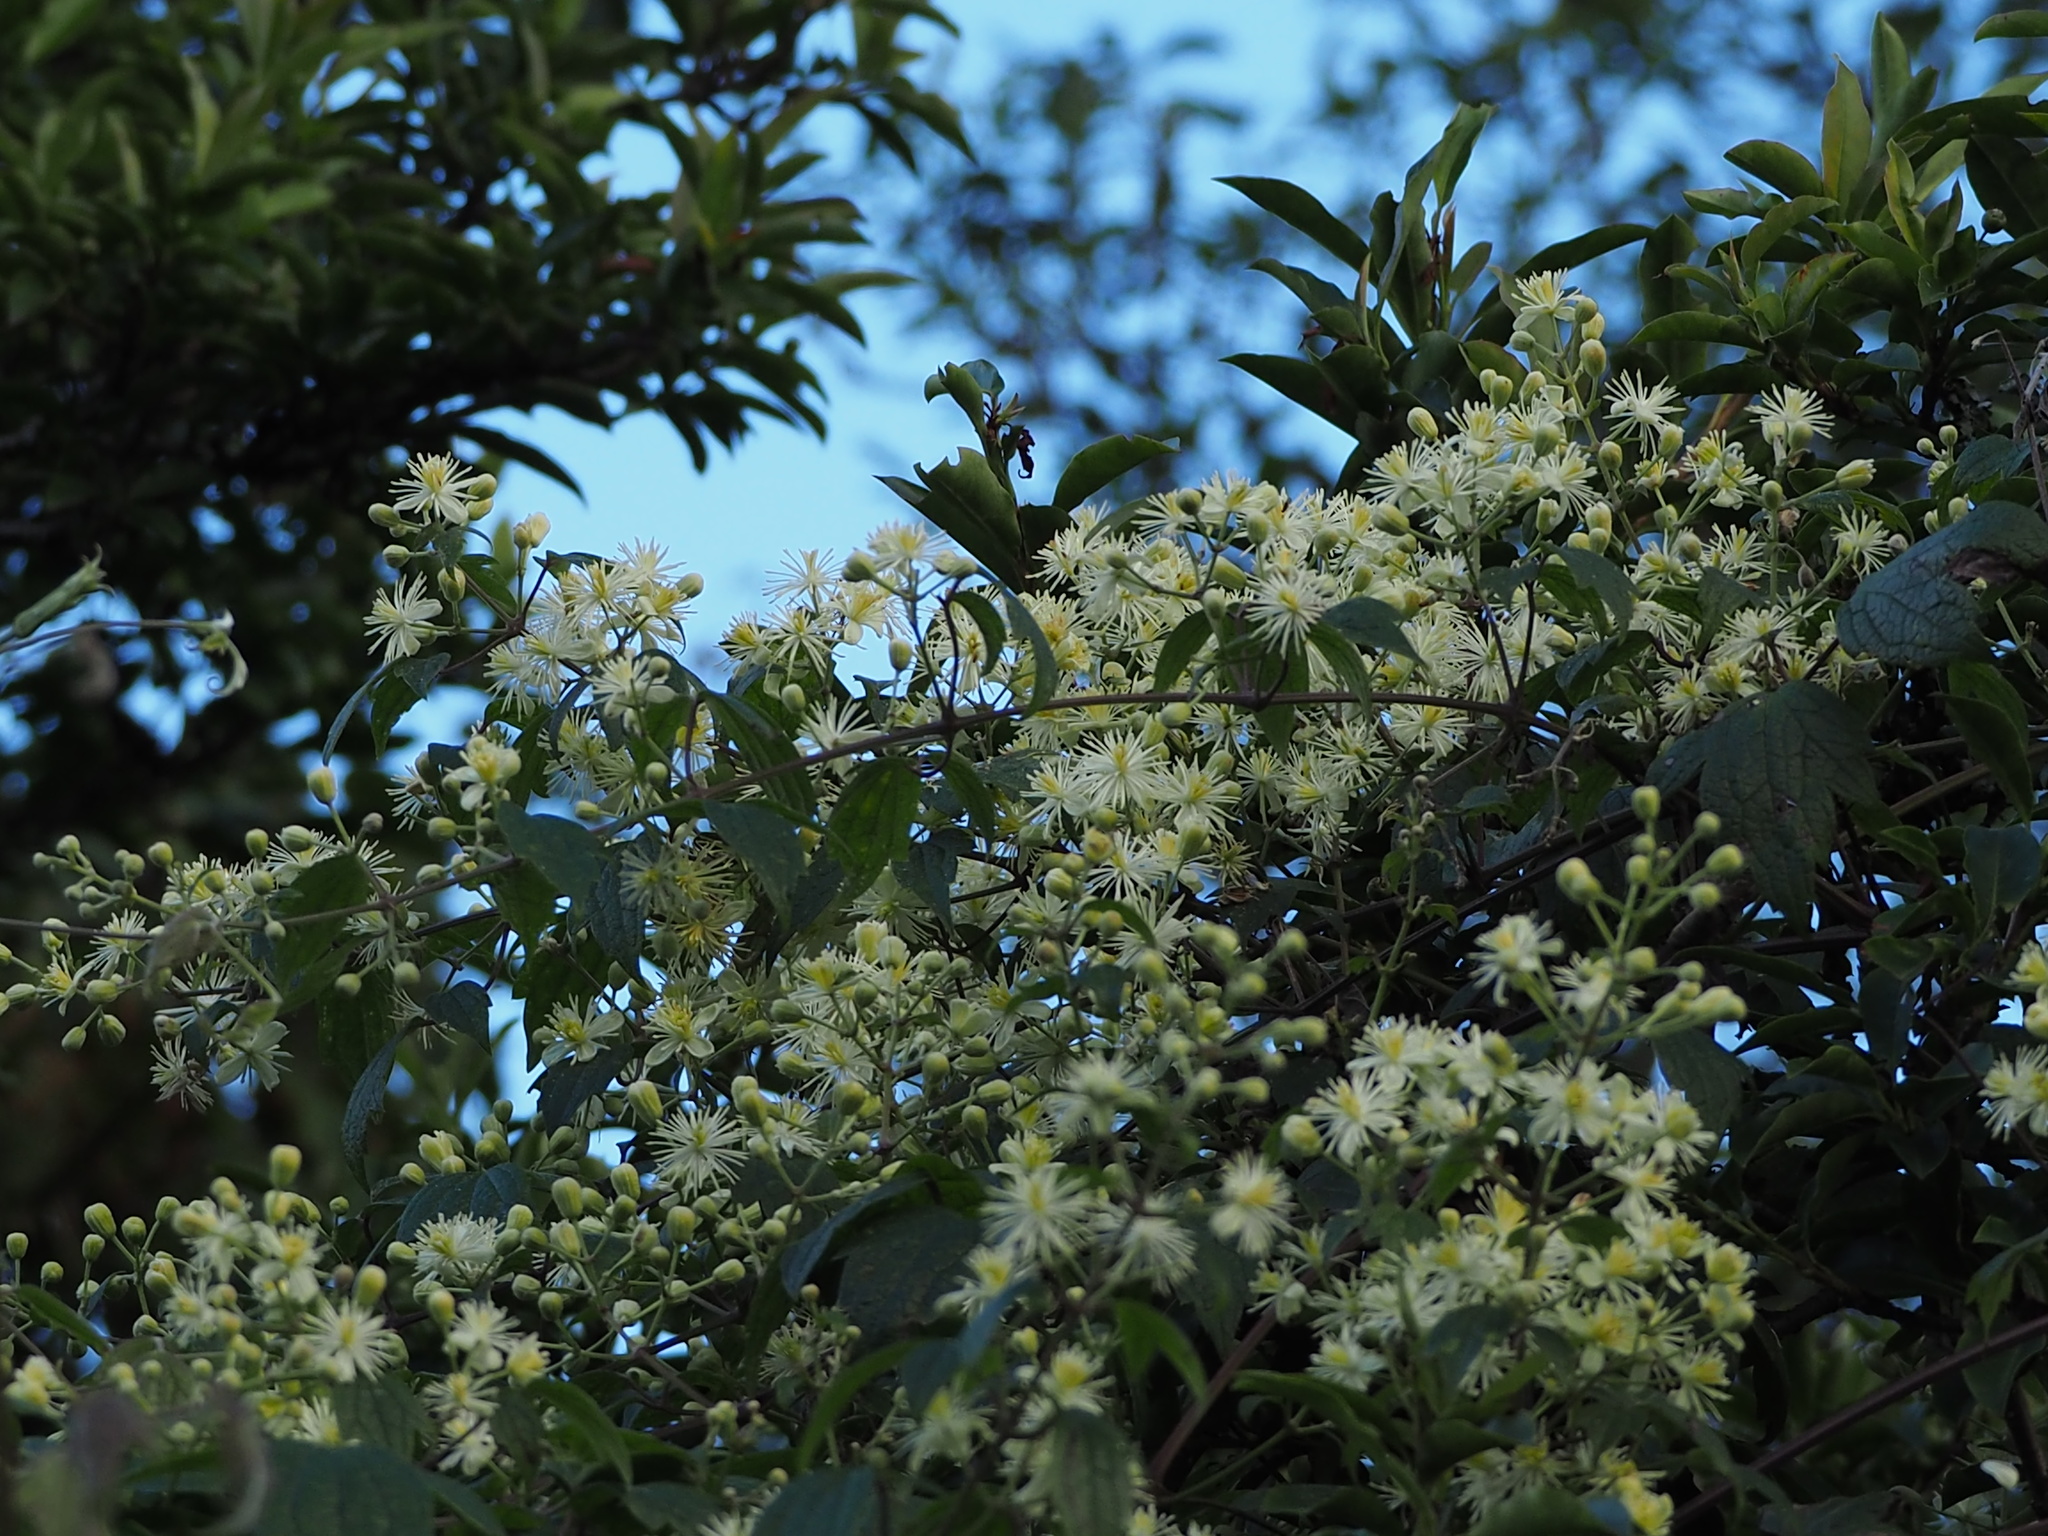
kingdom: Plantae
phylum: Tracheophyta
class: Magnoliopsida
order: Ranunculales
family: Ranunculaceae
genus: Clematis
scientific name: Clematis grata
